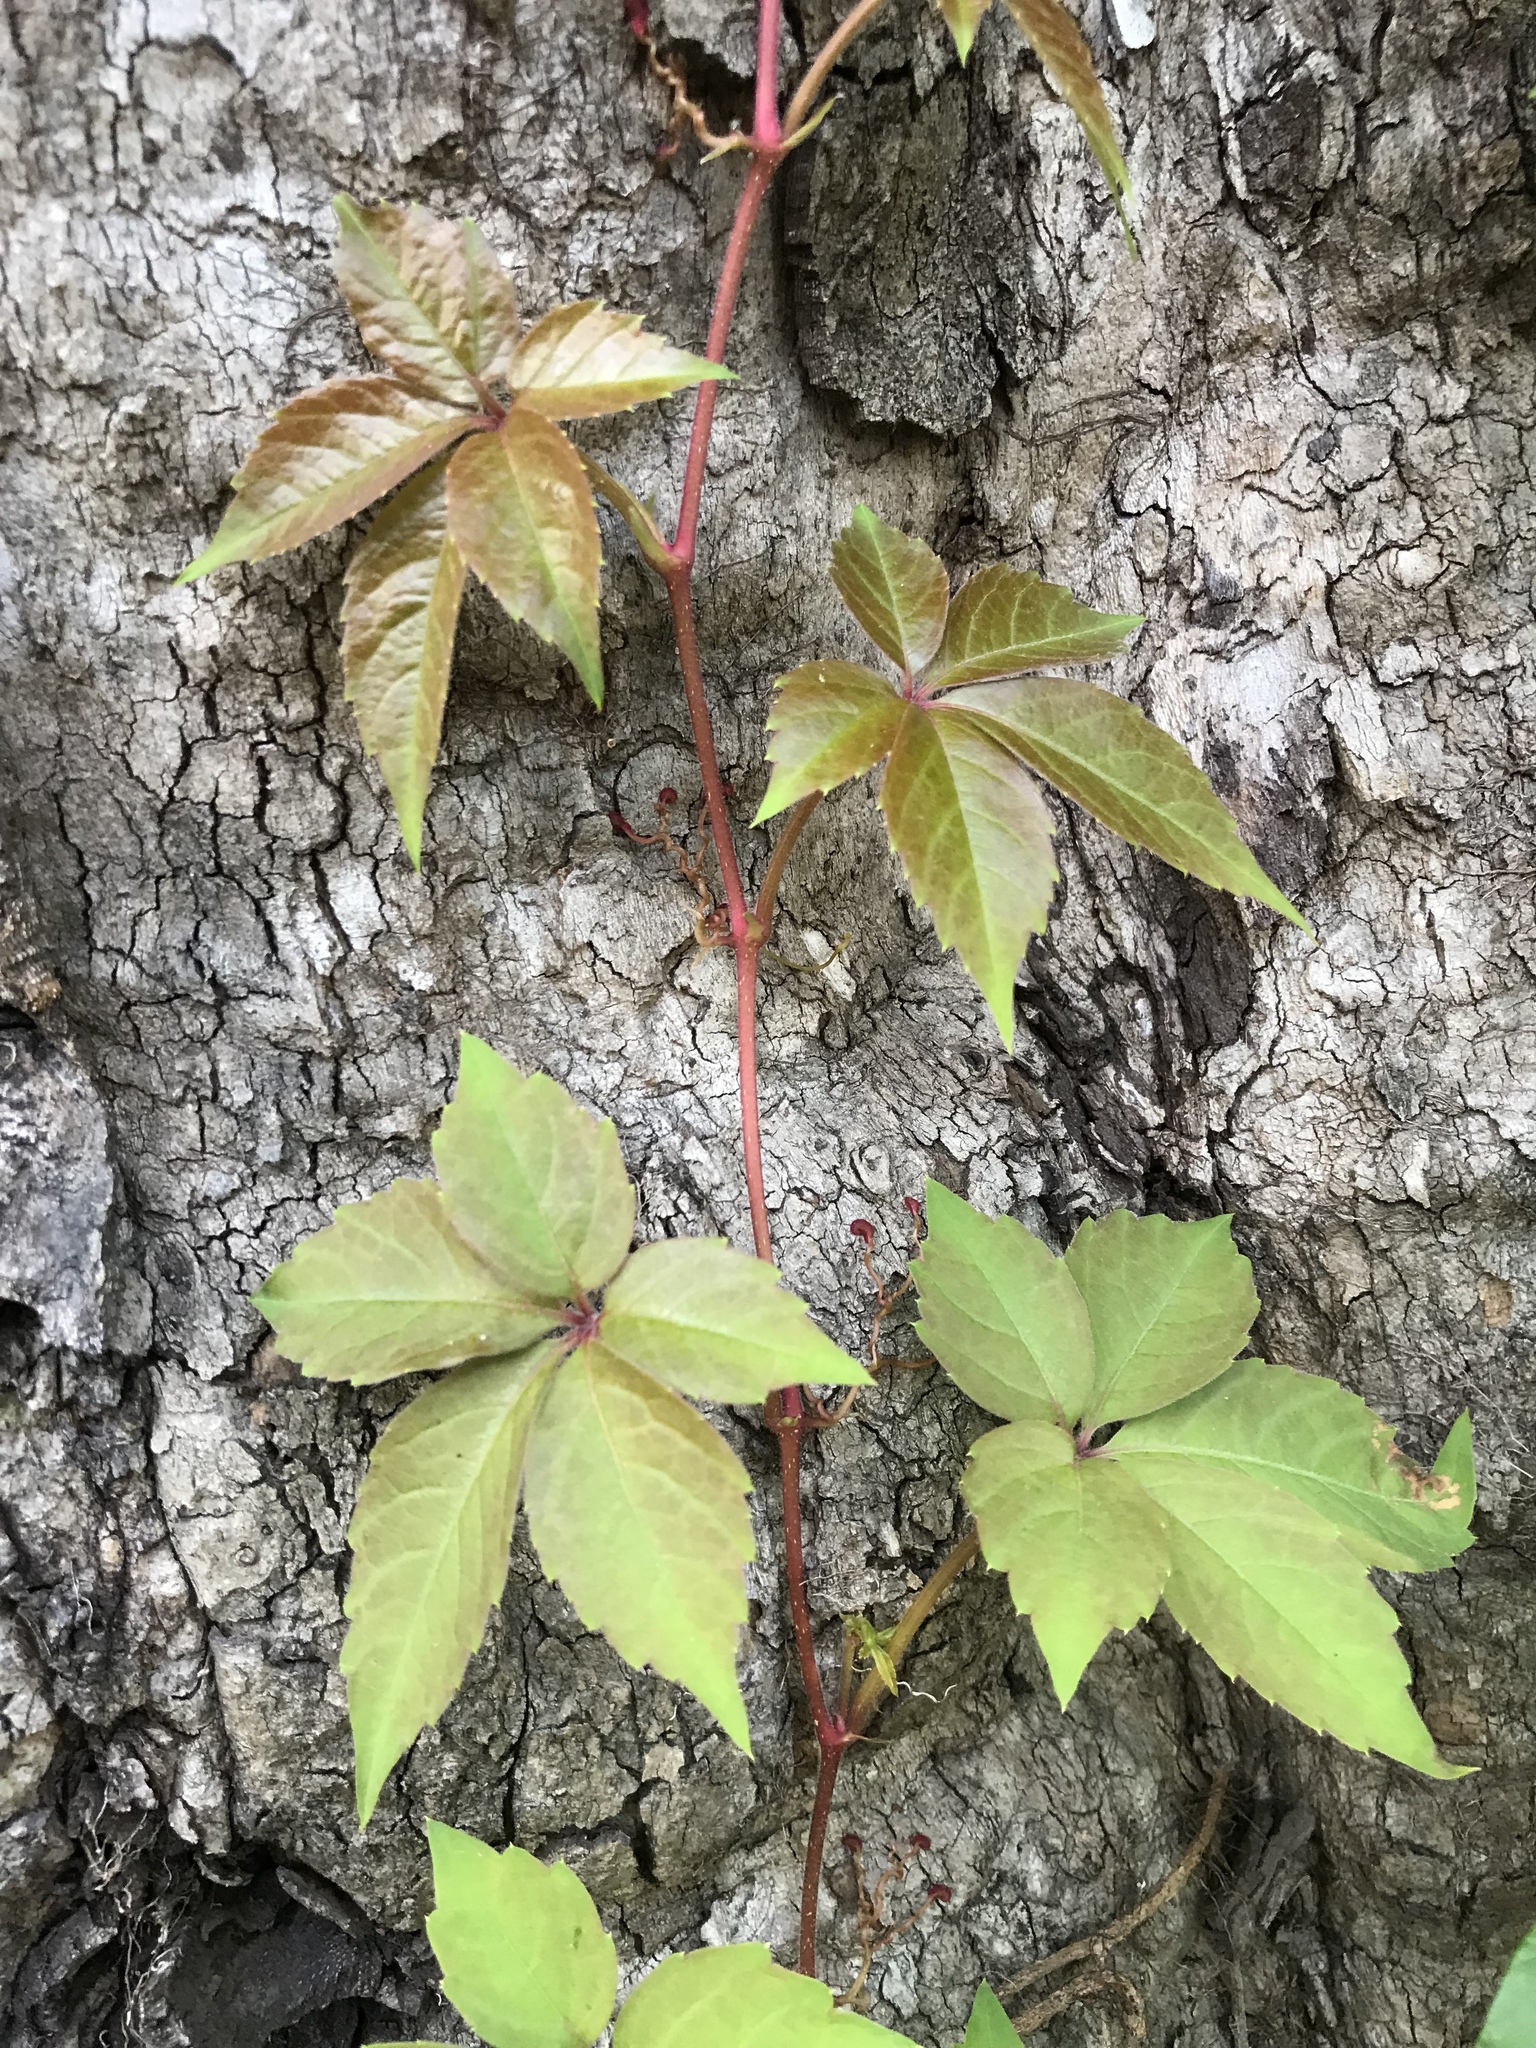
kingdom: Plantae
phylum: Tracheophyta
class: Magnoliopsida
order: Vitales
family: Vitaceae
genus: Parthenocissus
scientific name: Parthenocissus quinquefolia
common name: Virginia-creeper
